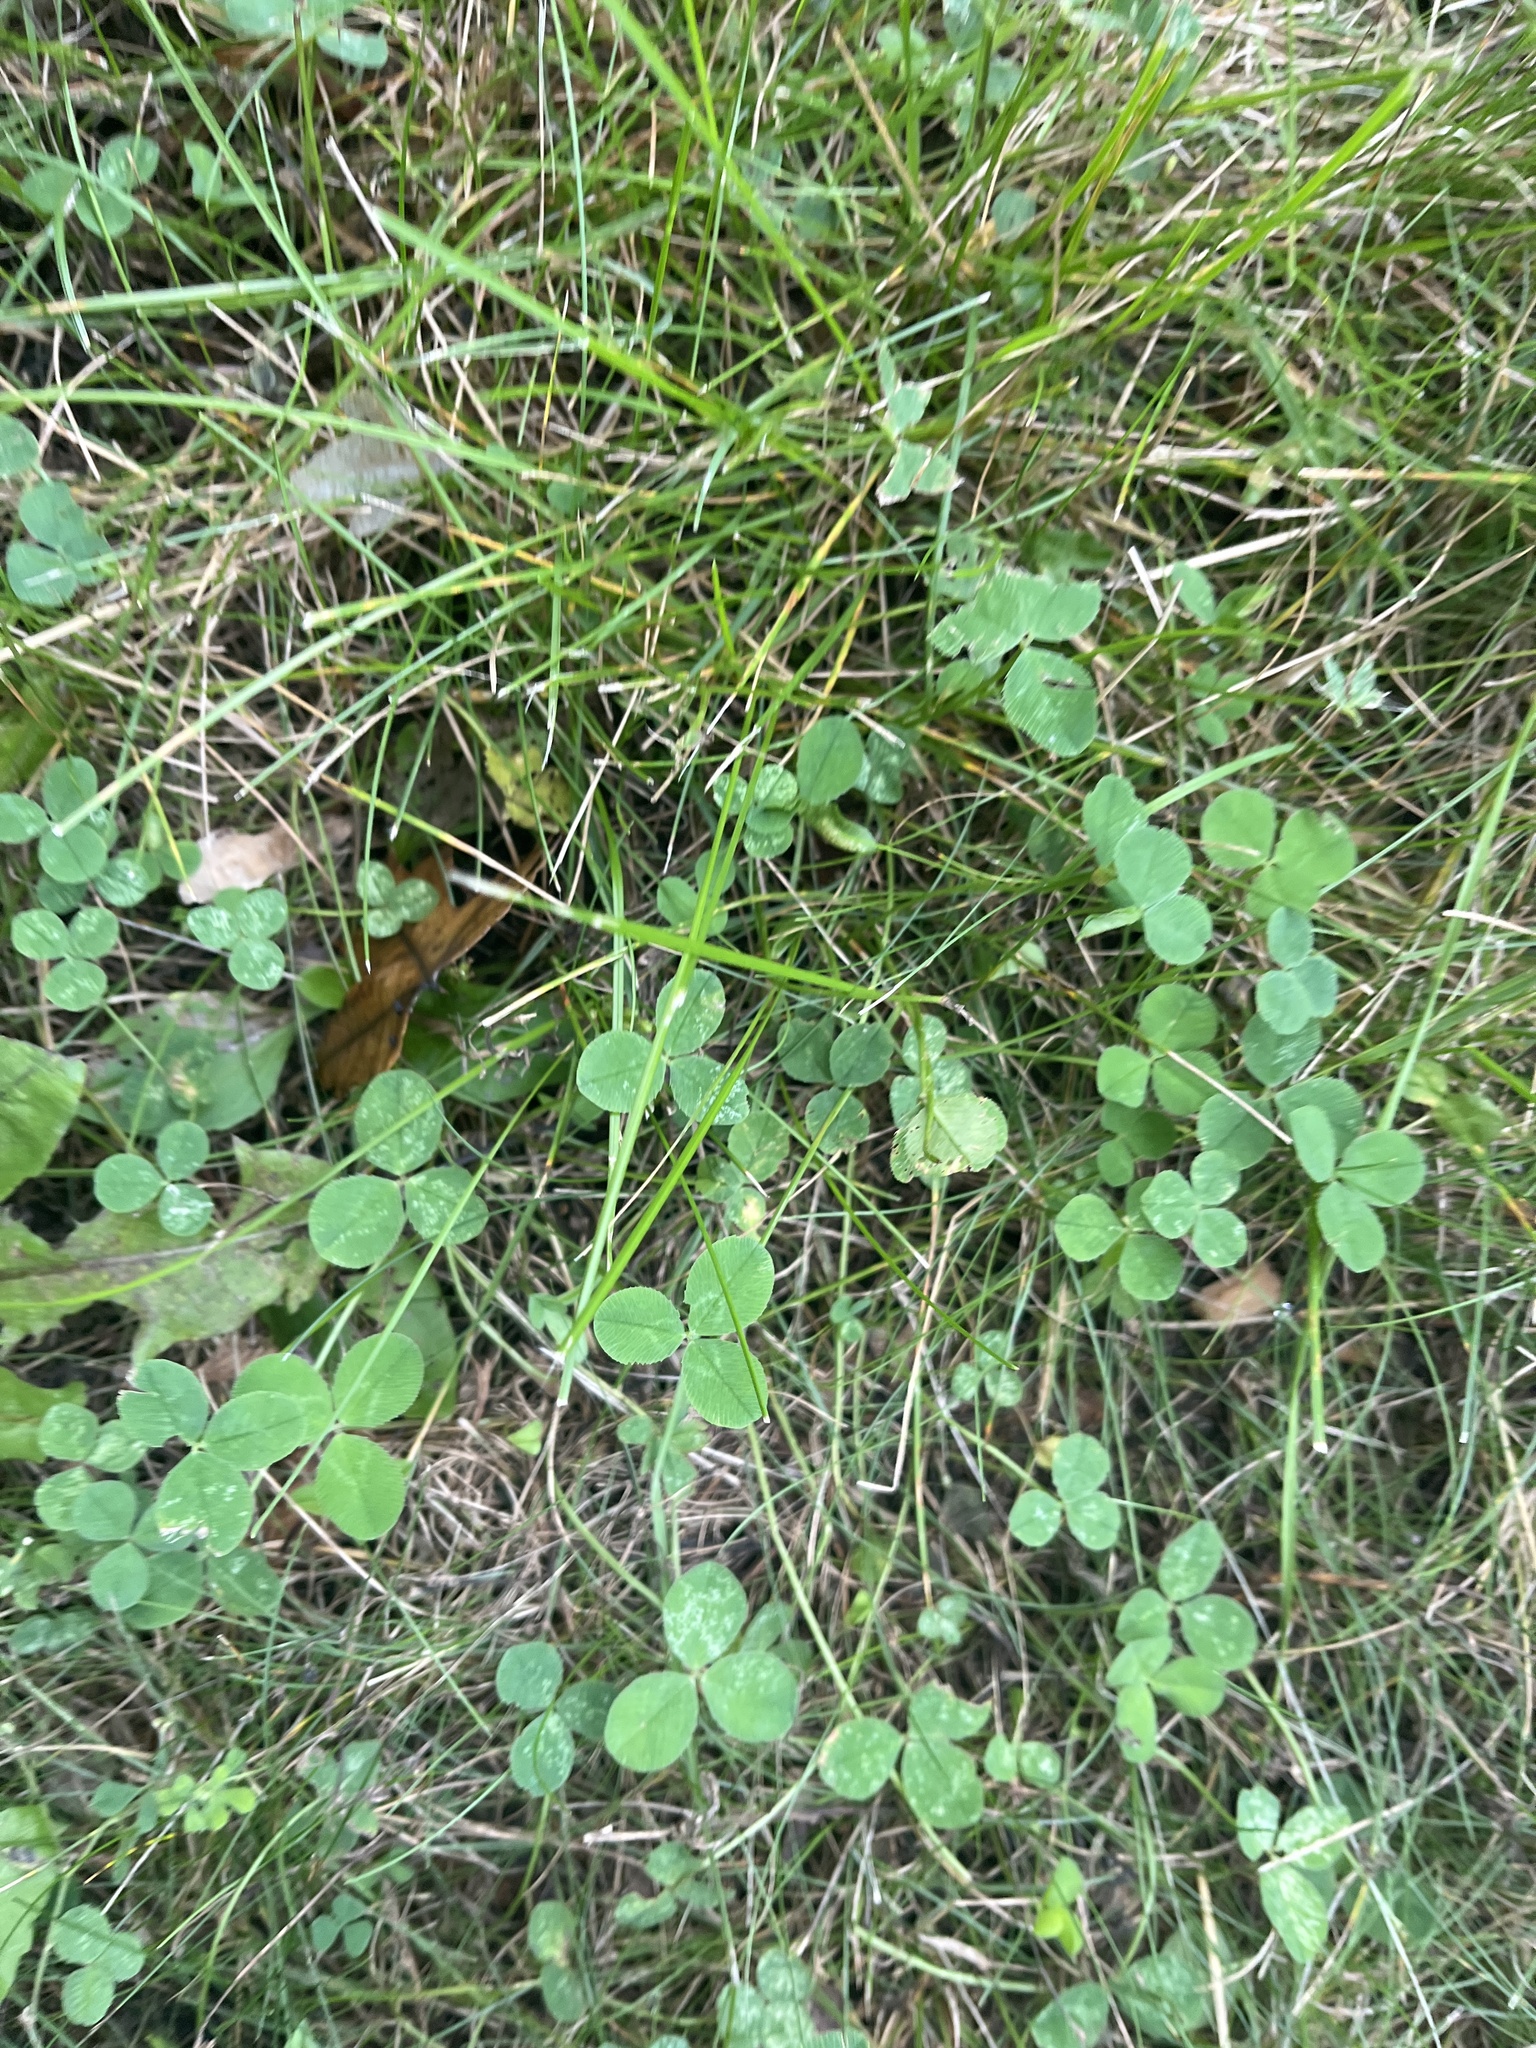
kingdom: Plantae
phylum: Tracheophyta
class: Magnoliopsida
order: Fabales
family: Fabaceae
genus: Trifolium
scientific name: Trifolium repens
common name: White clover
